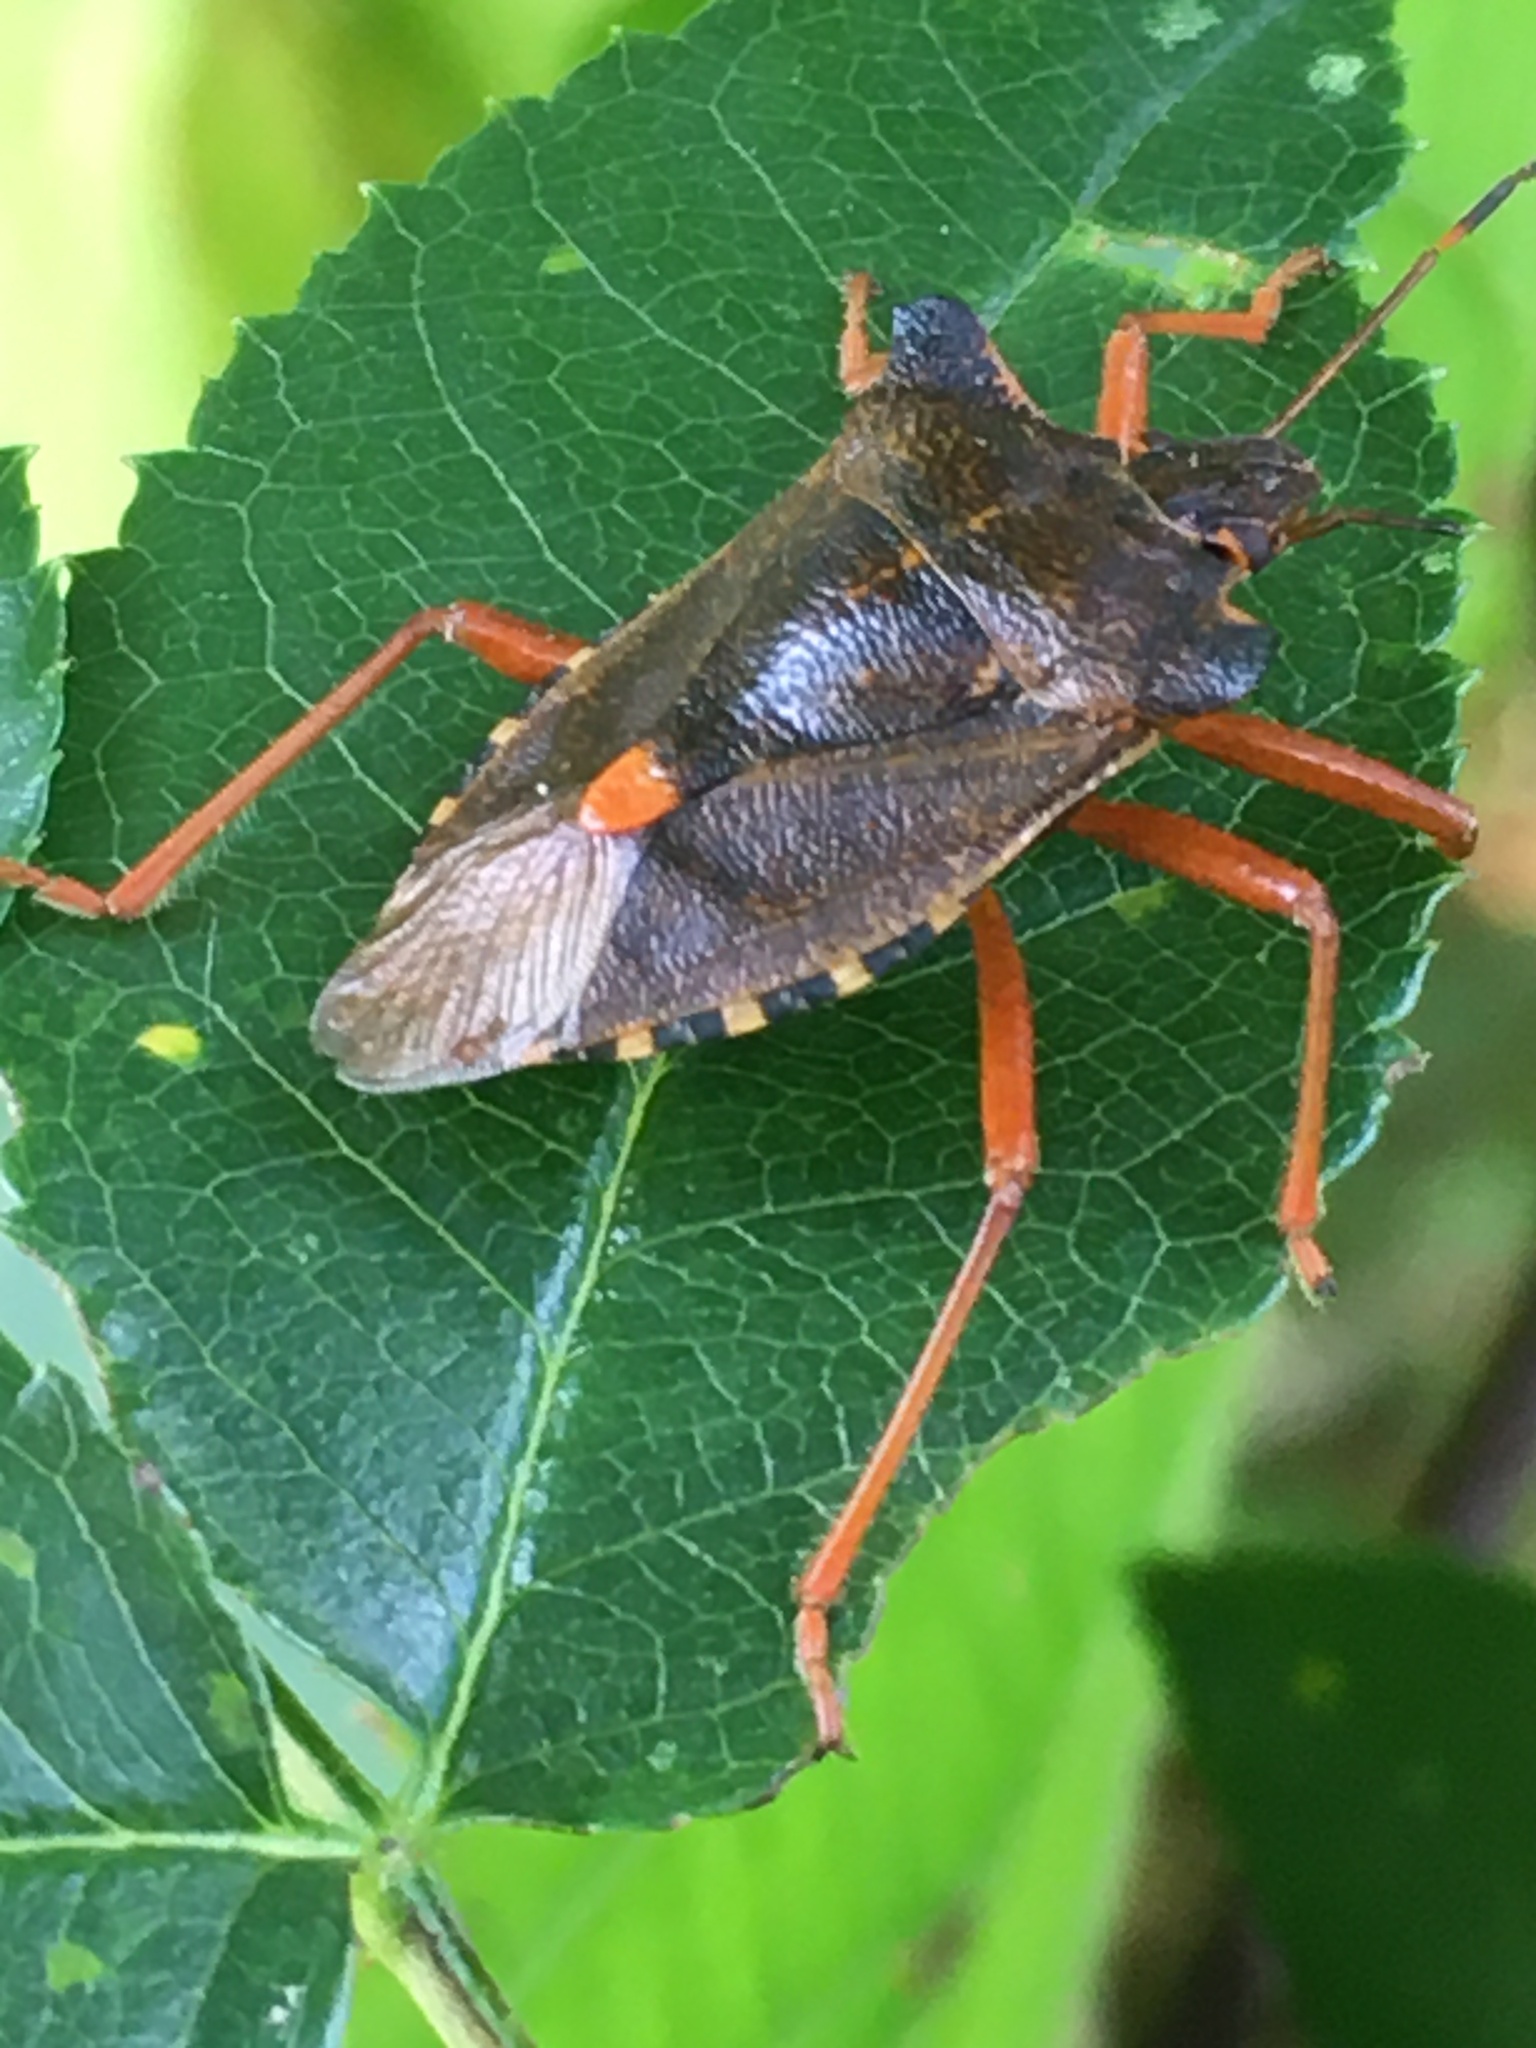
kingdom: Animalia
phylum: Arthropoda
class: Insecta
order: Hemiptera
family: Pentatomidae
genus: Pentatoma
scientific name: Pentatoma rufipes
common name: Forest bug
